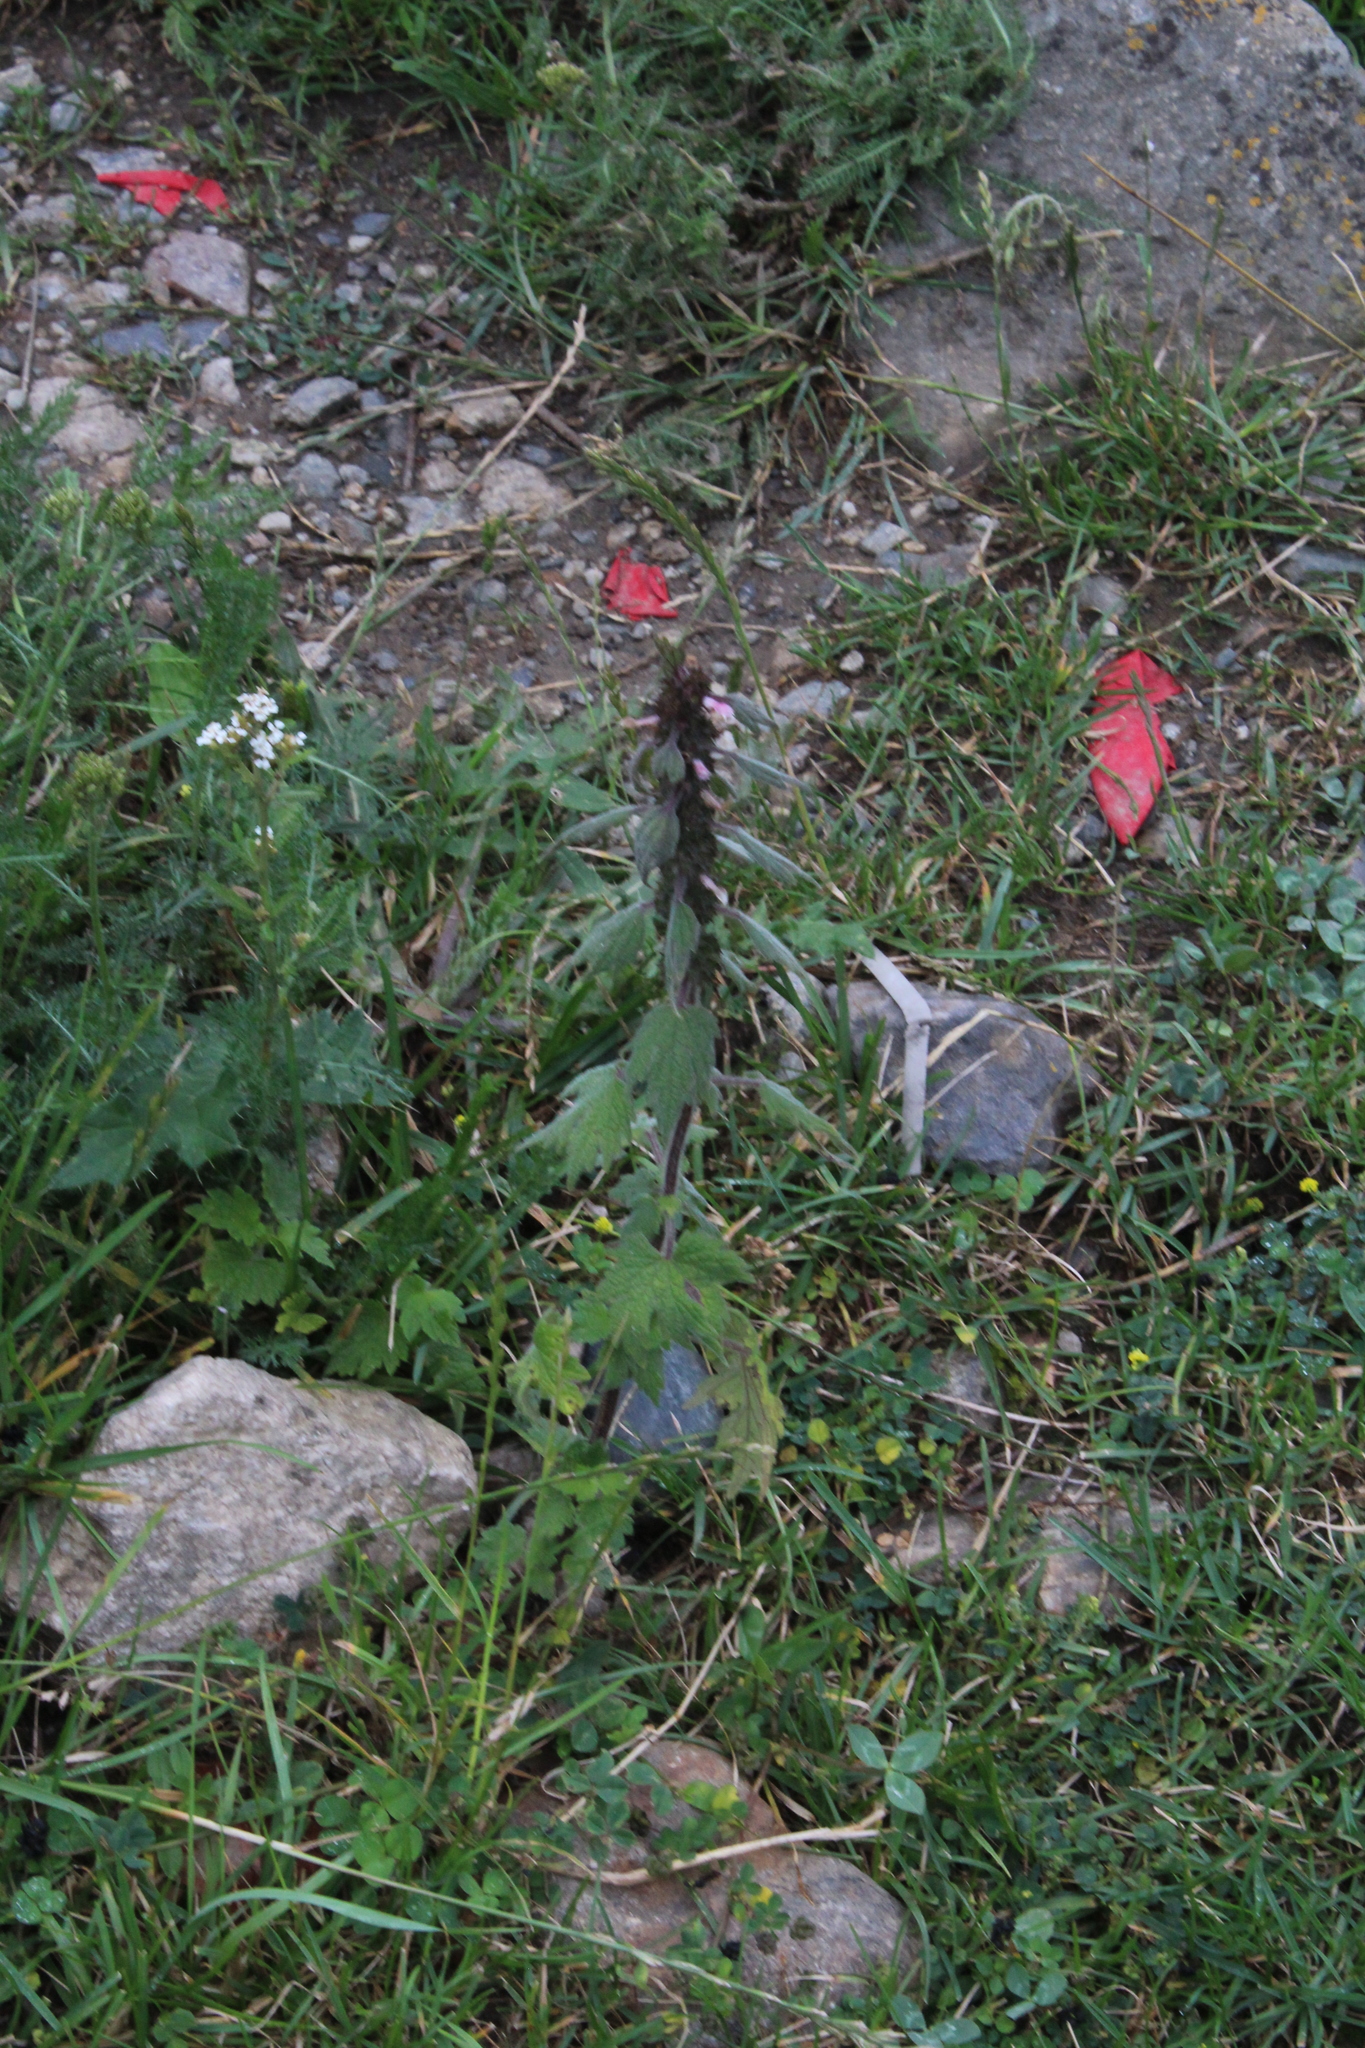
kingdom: Plantae
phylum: Tracheophyta
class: Magnoliopsida
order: Lamiales
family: Lamiaceae
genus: Leonurus
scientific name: Leonurus quinquelobatus
